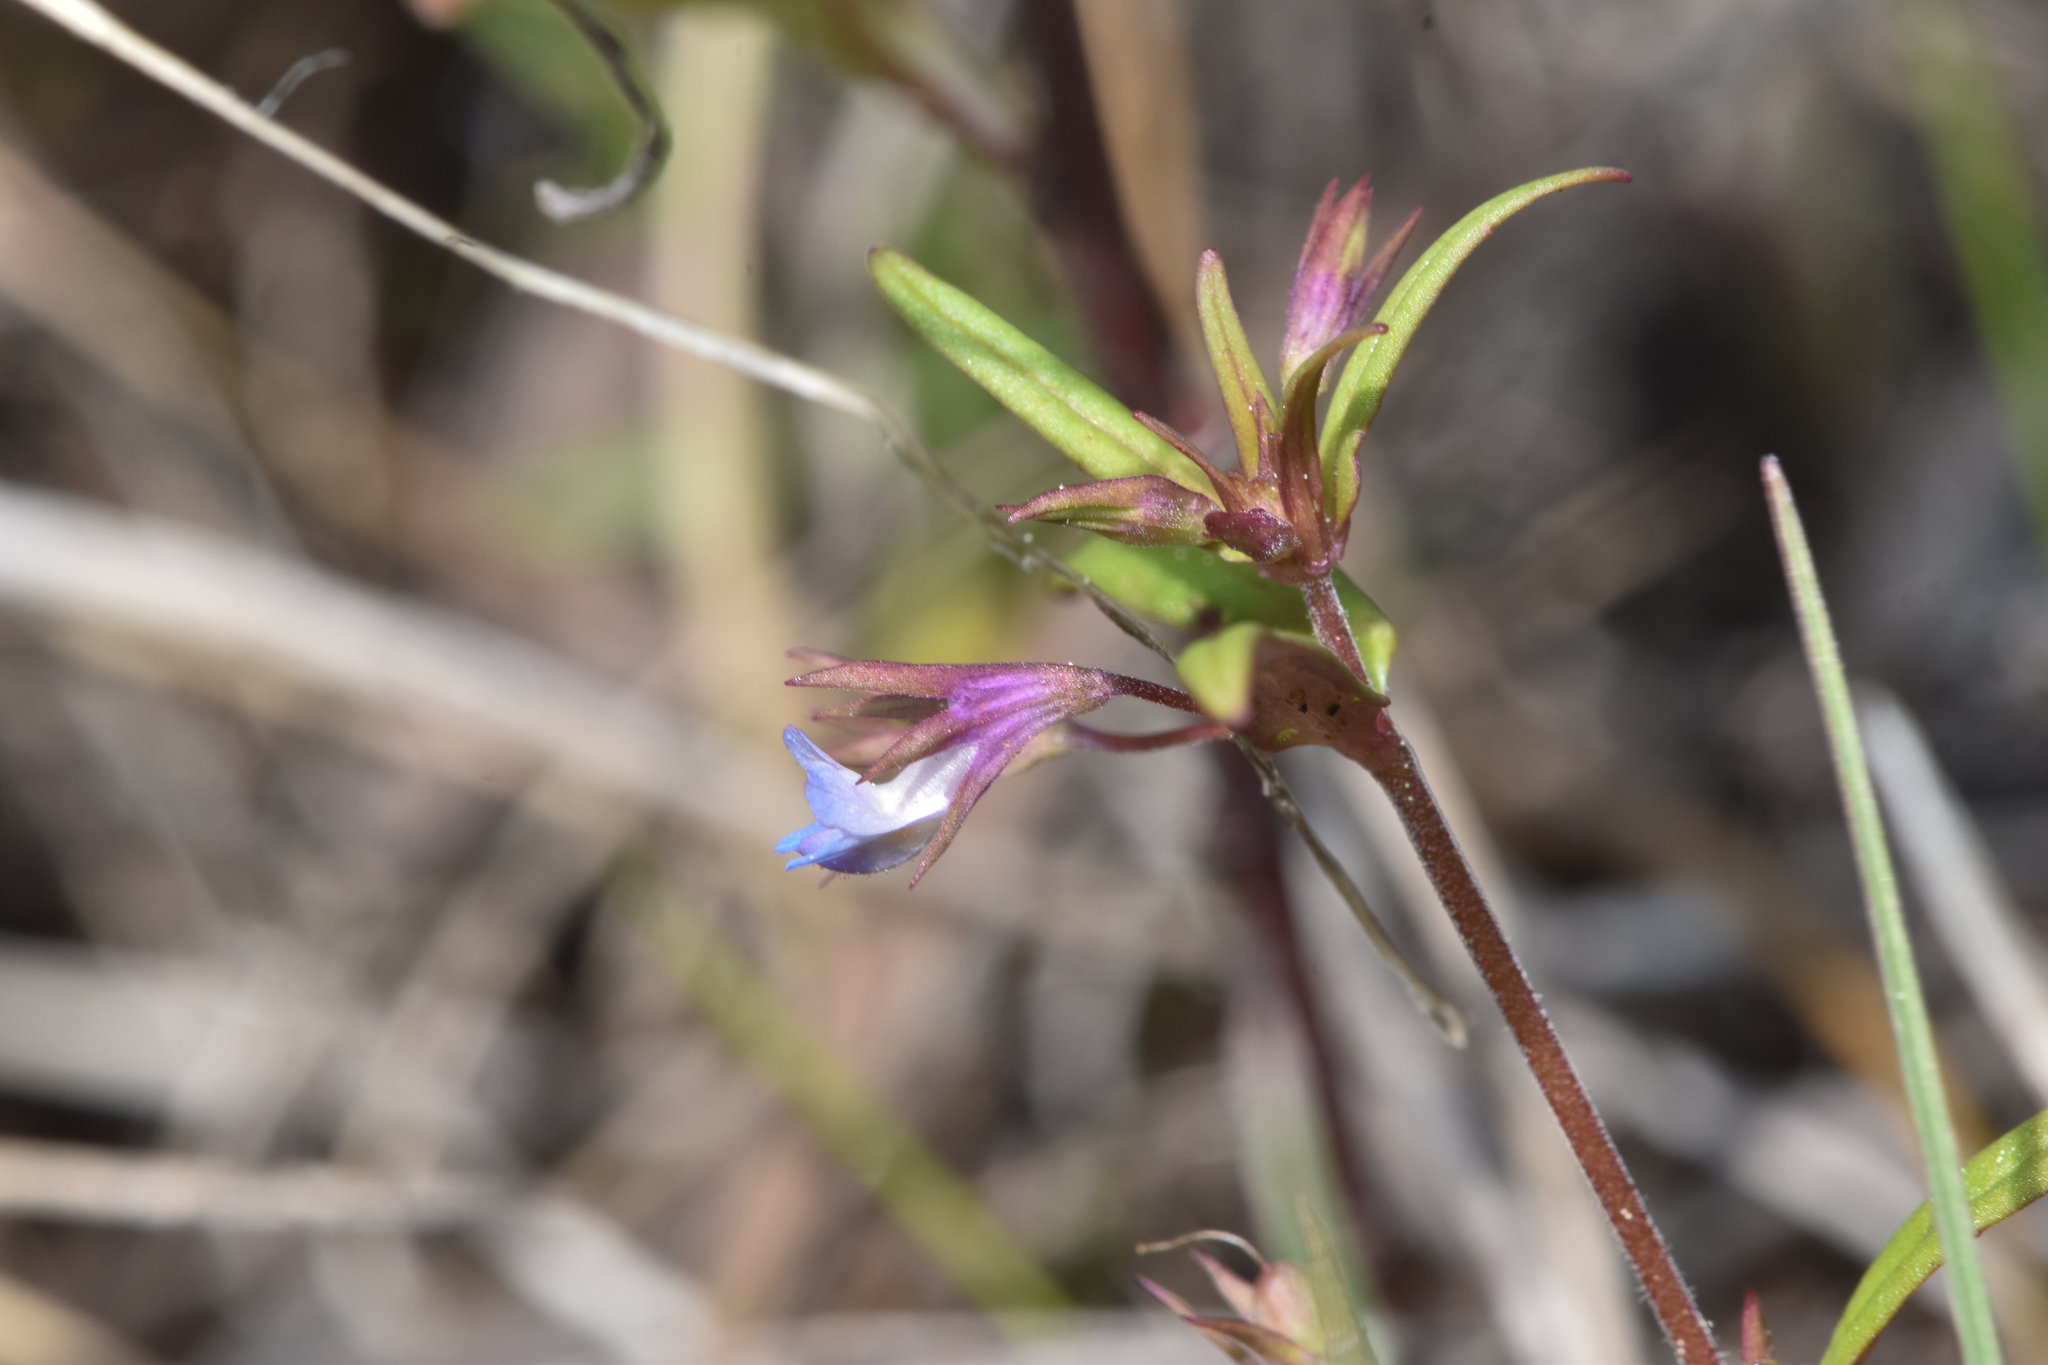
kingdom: Plantae
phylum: Tracheophyta
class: Magnoliopsida
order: Lamiales
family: Plantaginaceae
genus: Collinsia
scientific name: Collinsia parviflora
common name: Blue-lips
